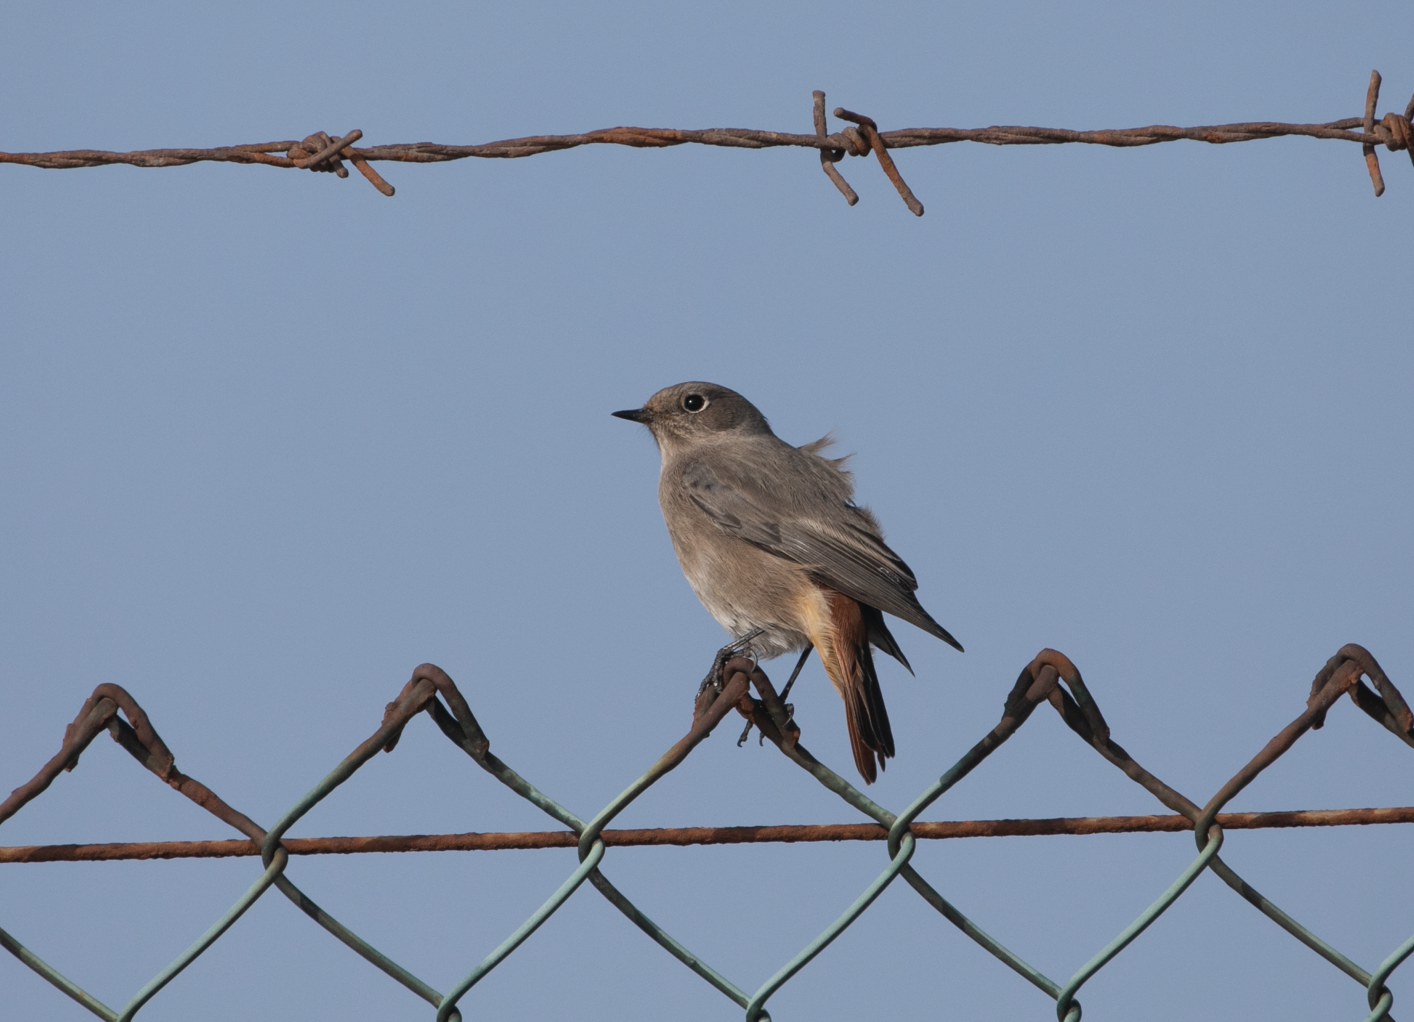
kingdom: Animalia
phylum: Chordata
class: Aves
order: Passeriformes
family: Muscicapidae
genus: Phoenicurus
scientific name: Phoenicurus ochruros
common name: Black redstart
